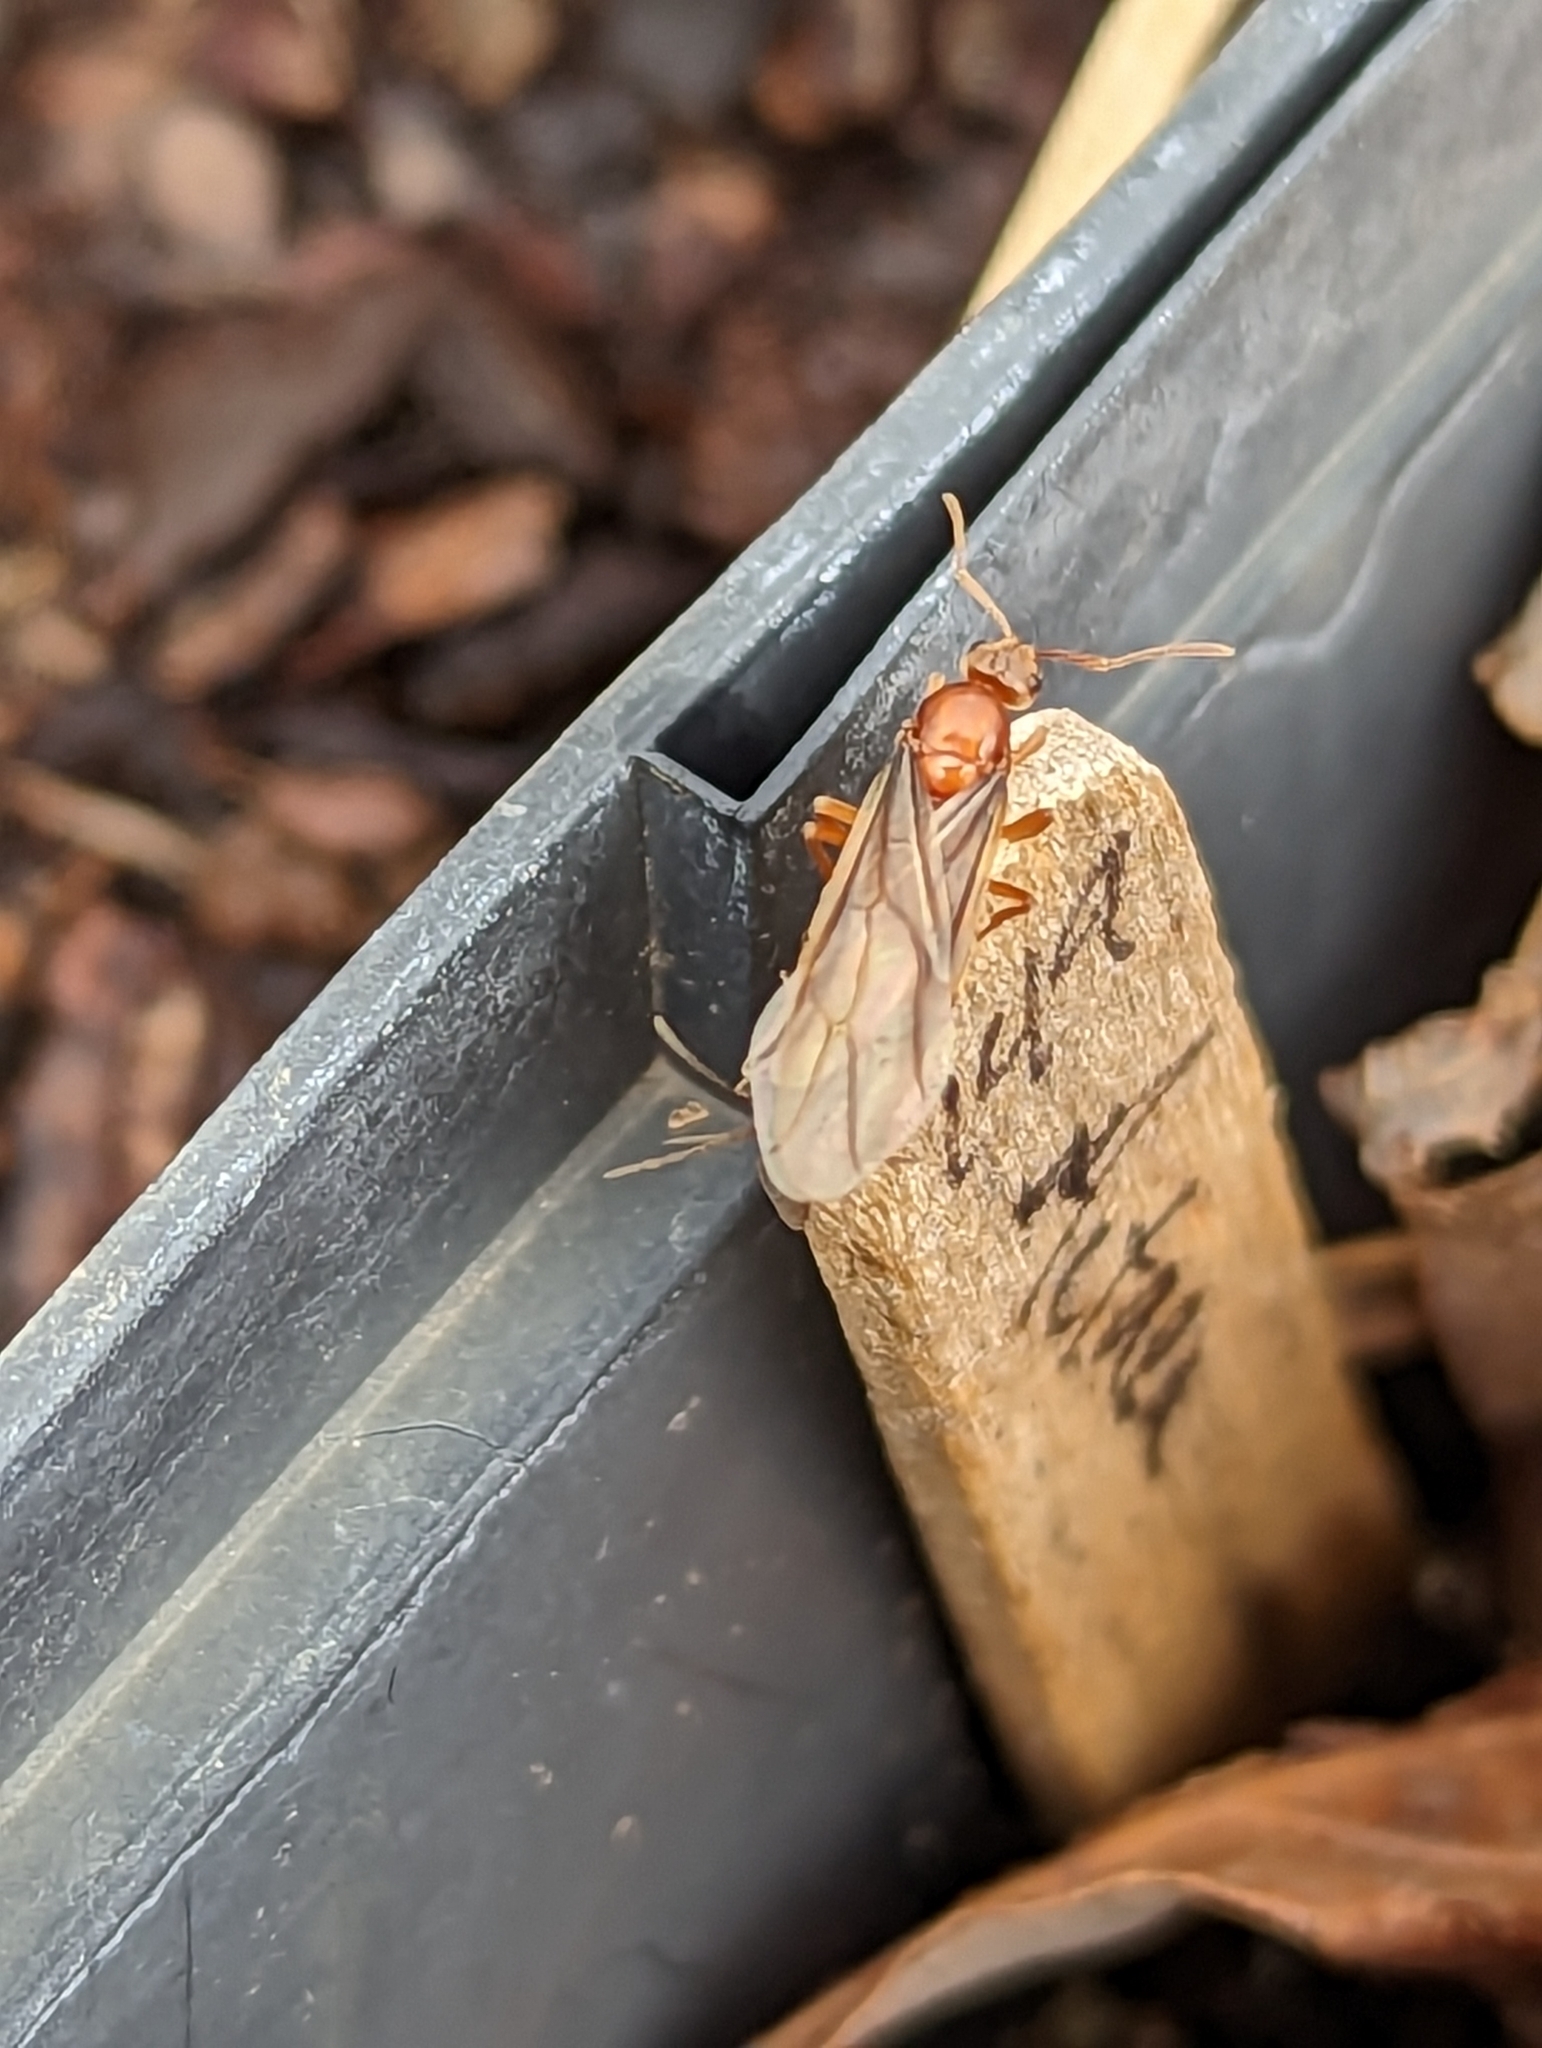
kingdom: Animalia
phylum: Arthropoda
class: Insecta
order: Hymenoptera
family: Formicidae
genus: Prenolepis
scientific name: Prenolepis imparis
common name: Small honey ant
